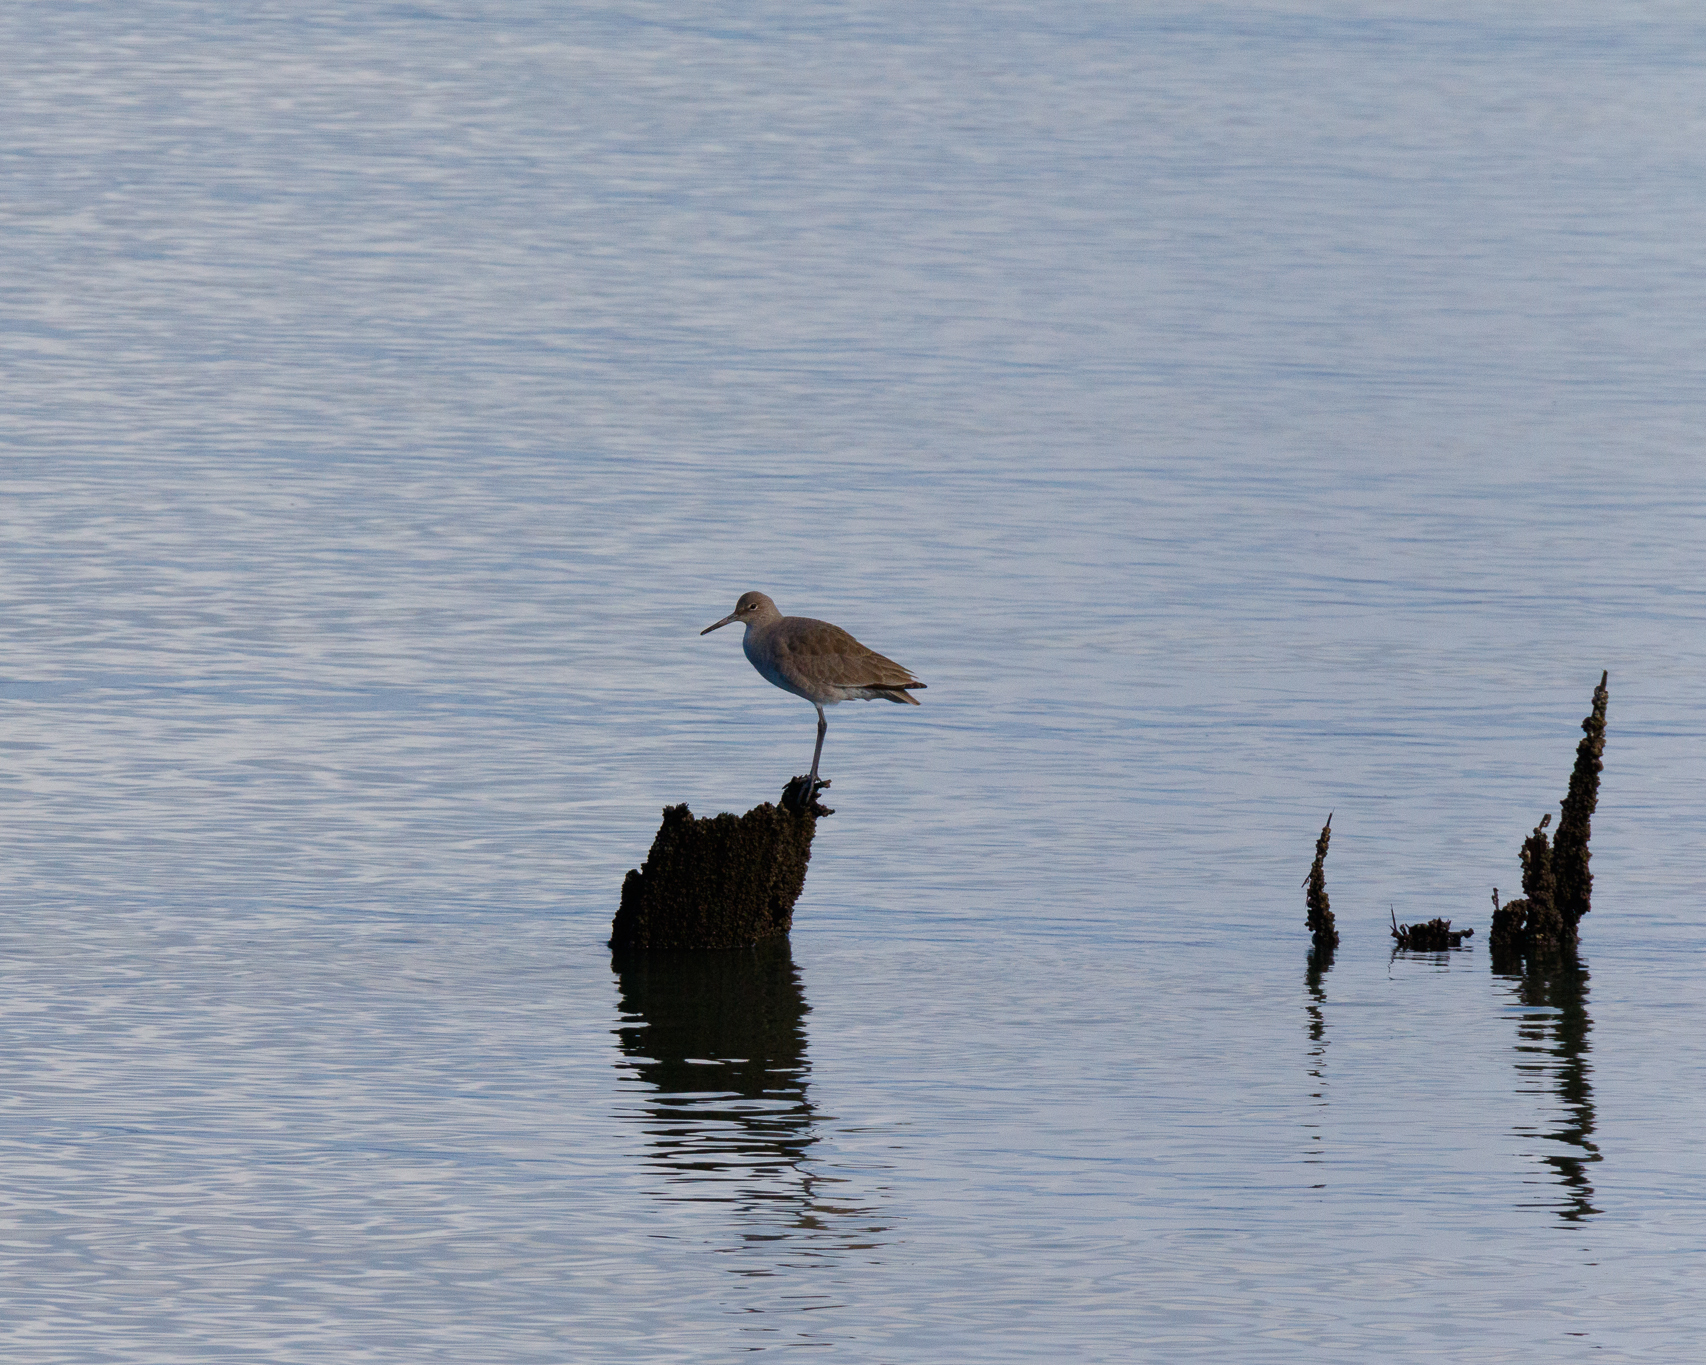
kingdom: Animalia
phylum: Chordata
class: Aves
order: Charadriiformes
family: Scolopacidae
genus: Tringa
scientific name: Tringa semipalmata
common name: Willet
